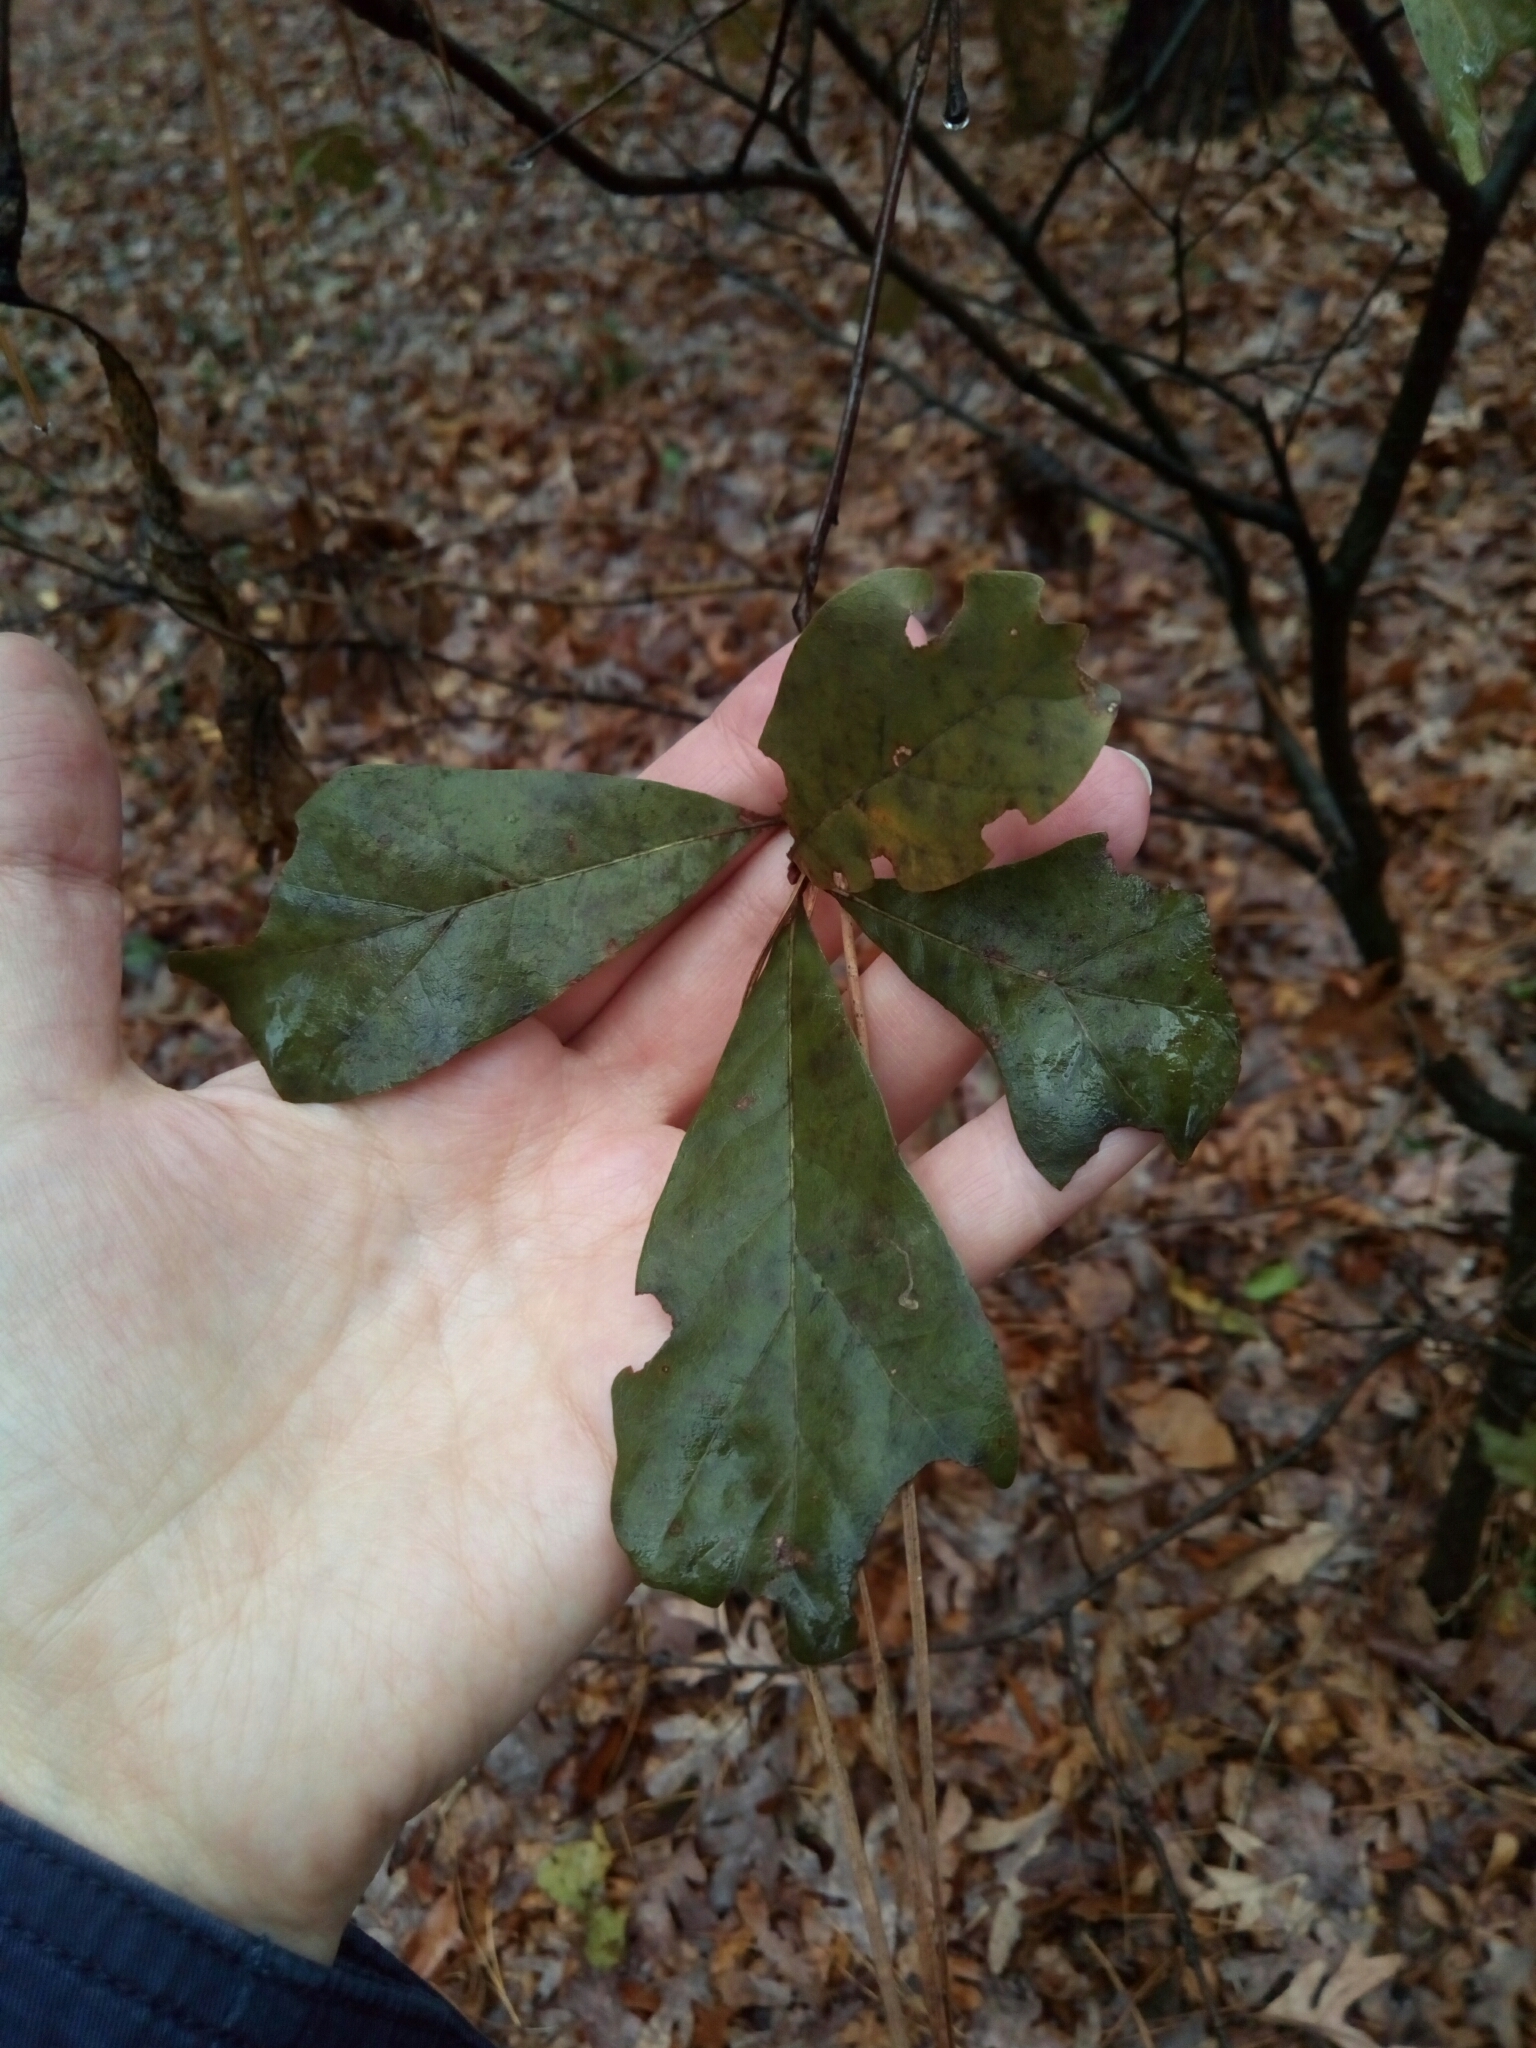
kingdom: Plantae
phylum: Tracheophyta
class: Magnoliopsida
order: Fagales
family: Fagaceae
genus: Quercus
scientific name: Quercus nigra
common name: Water oak
